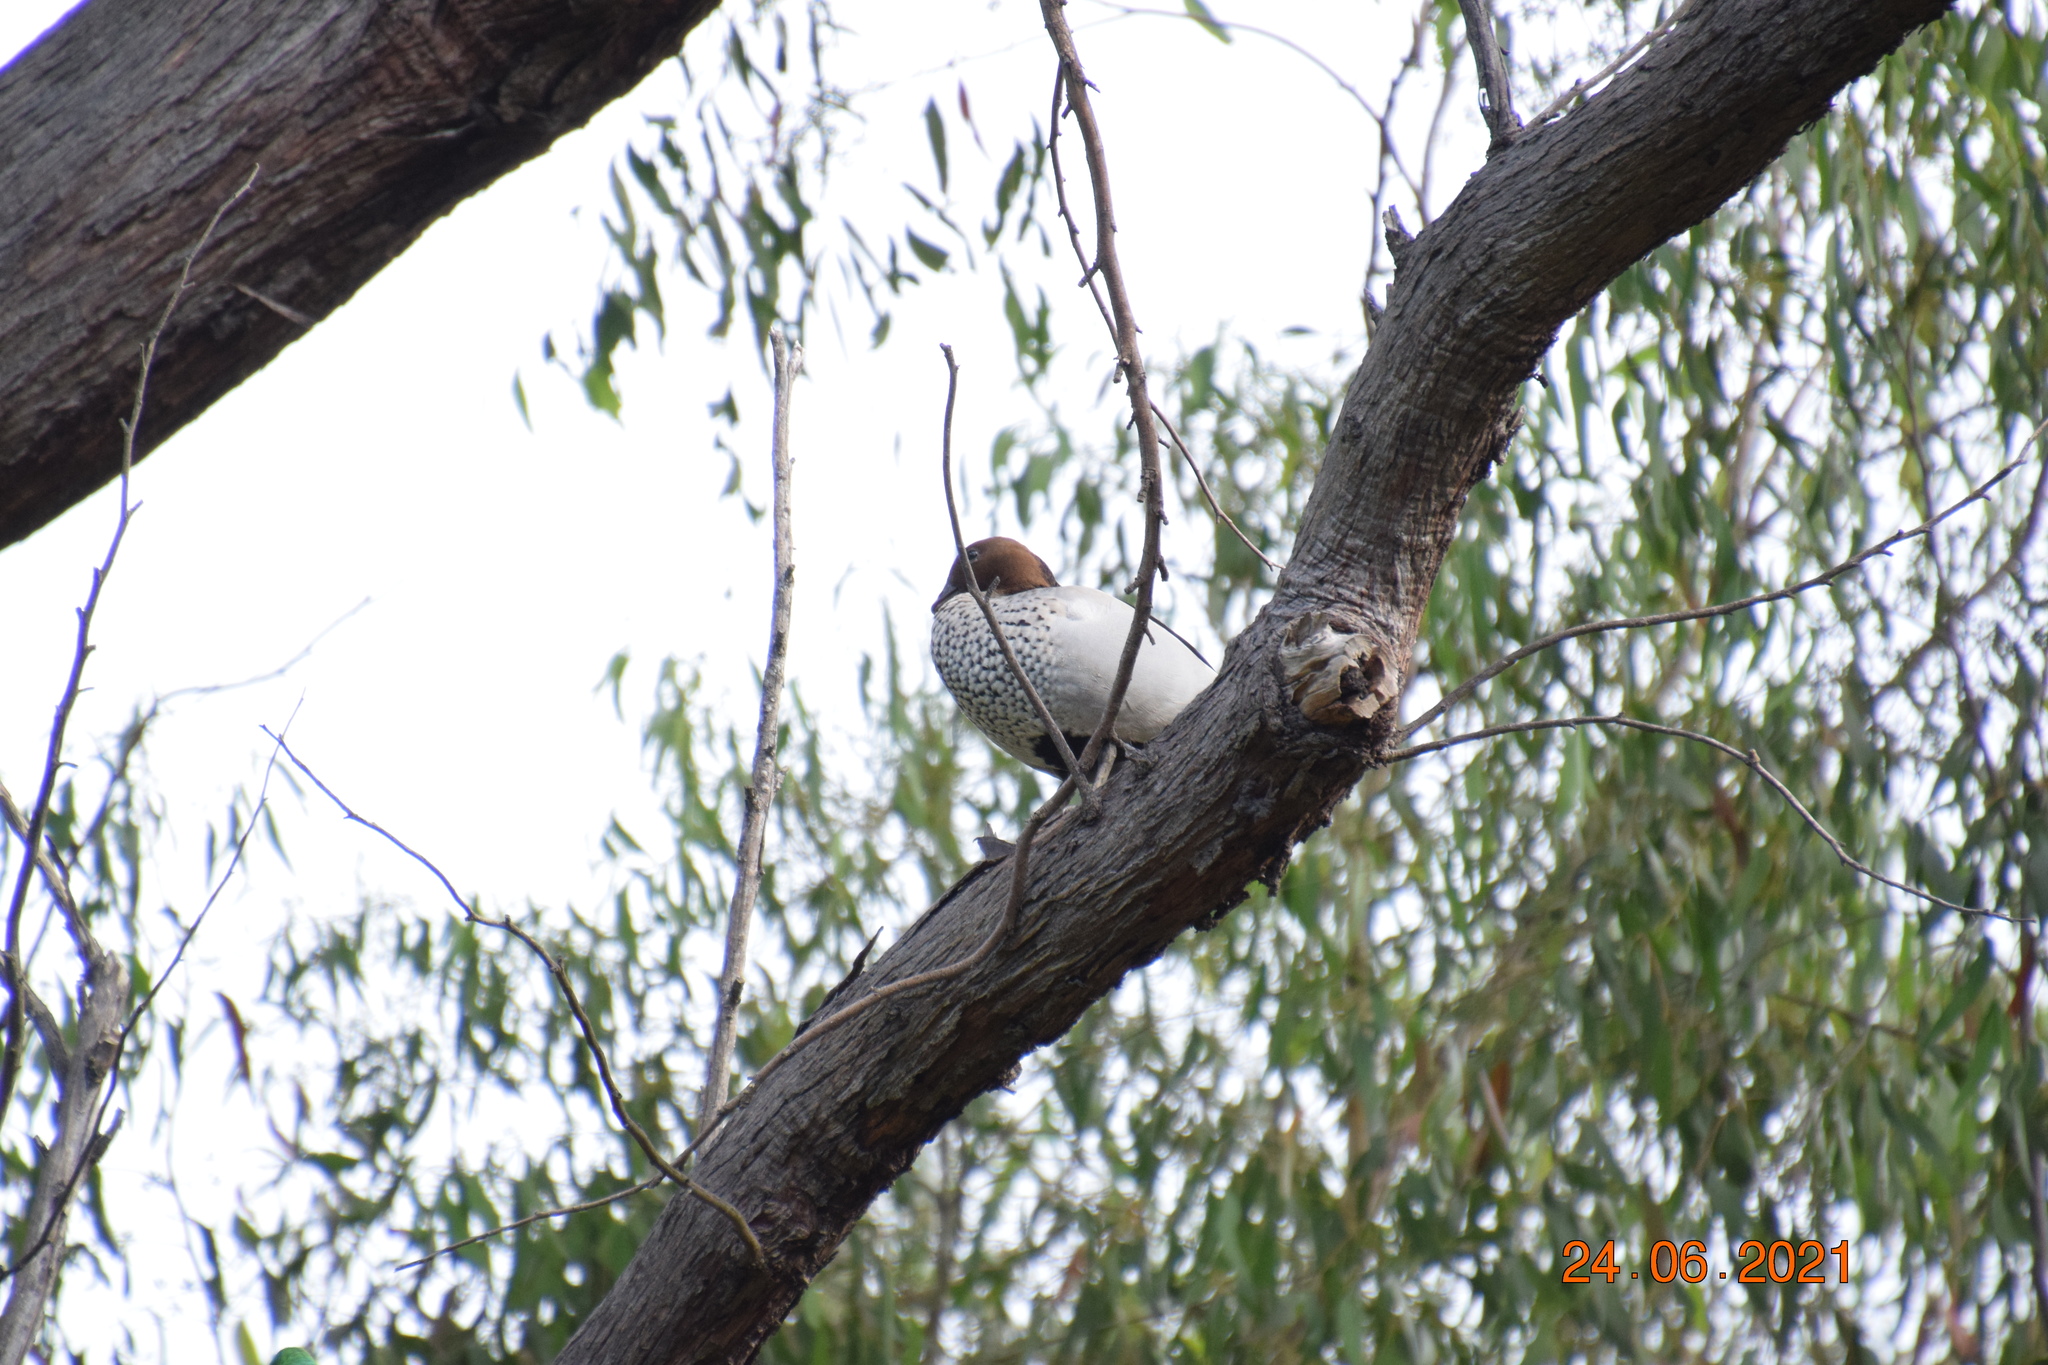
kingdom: Animalia
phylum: Chordata
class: Aves
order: Anseriformes
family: Anatidae
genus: Chenonetta
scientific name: Chenonetta jubata
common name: Maned duck
